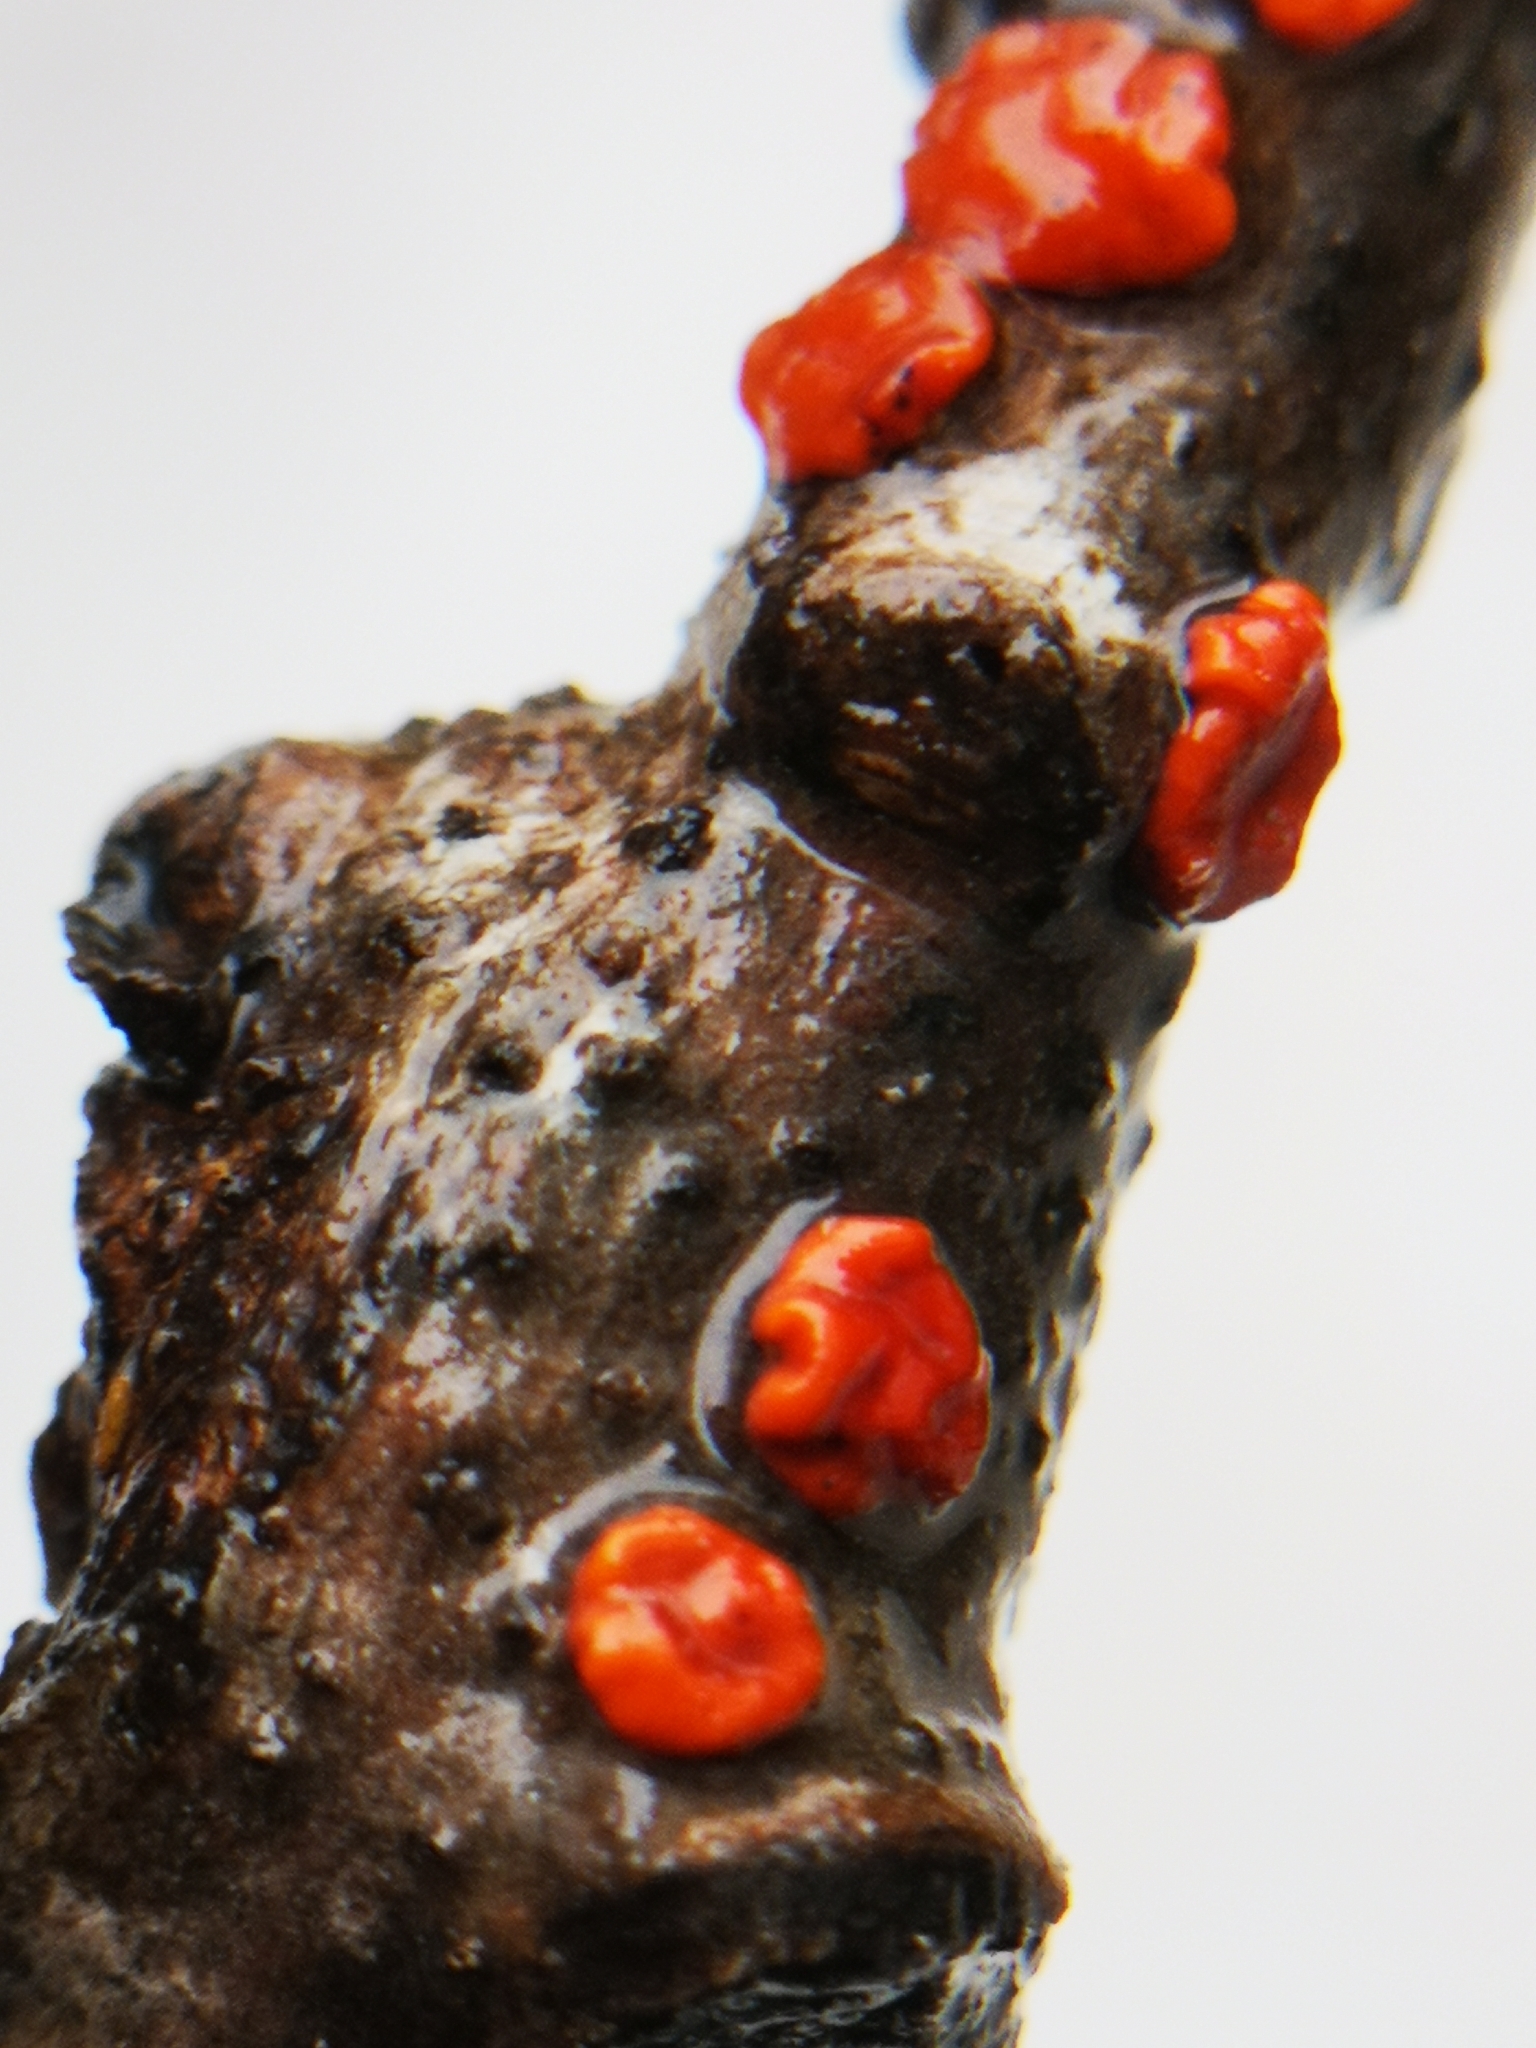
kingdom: Fungi
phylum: Basidiomycota
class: Agaricomycetes
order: Russulales
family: Peniophoraceae
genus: Peniophora
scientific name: Peniophora rufa
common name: Red tree brain fungus
